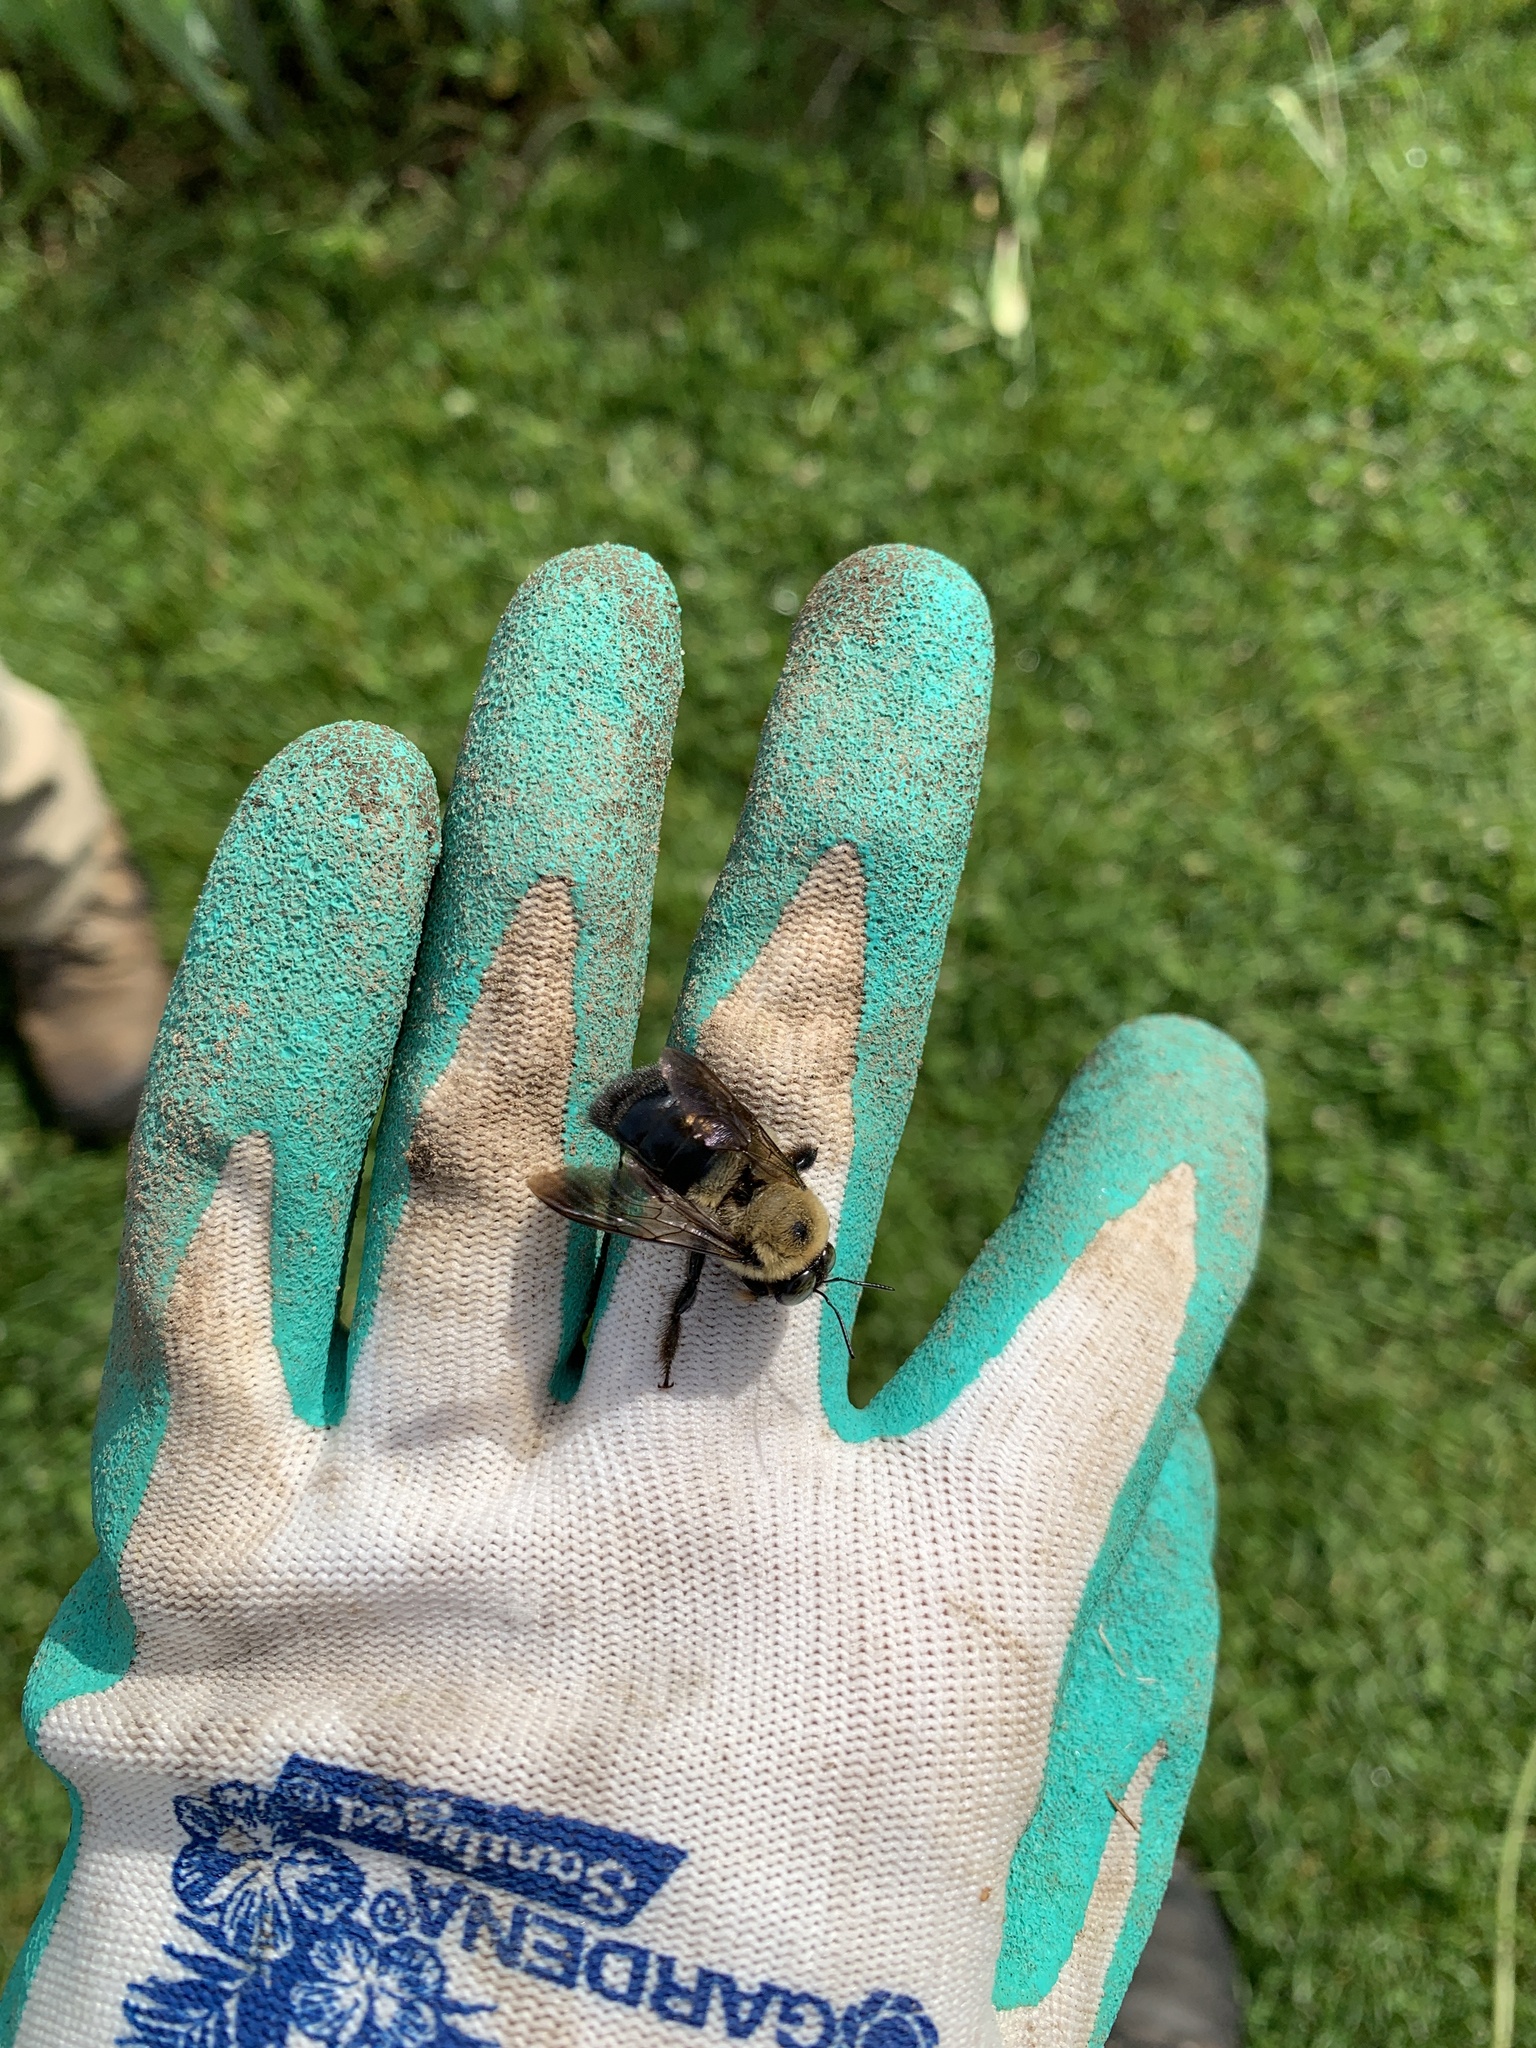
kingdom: Animalia
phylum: Arthropoda
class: Insecta
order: Hymenoptera
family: Apidae
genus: Xylocopa
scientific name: Xylocopa virginica
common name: Carpenter bee
